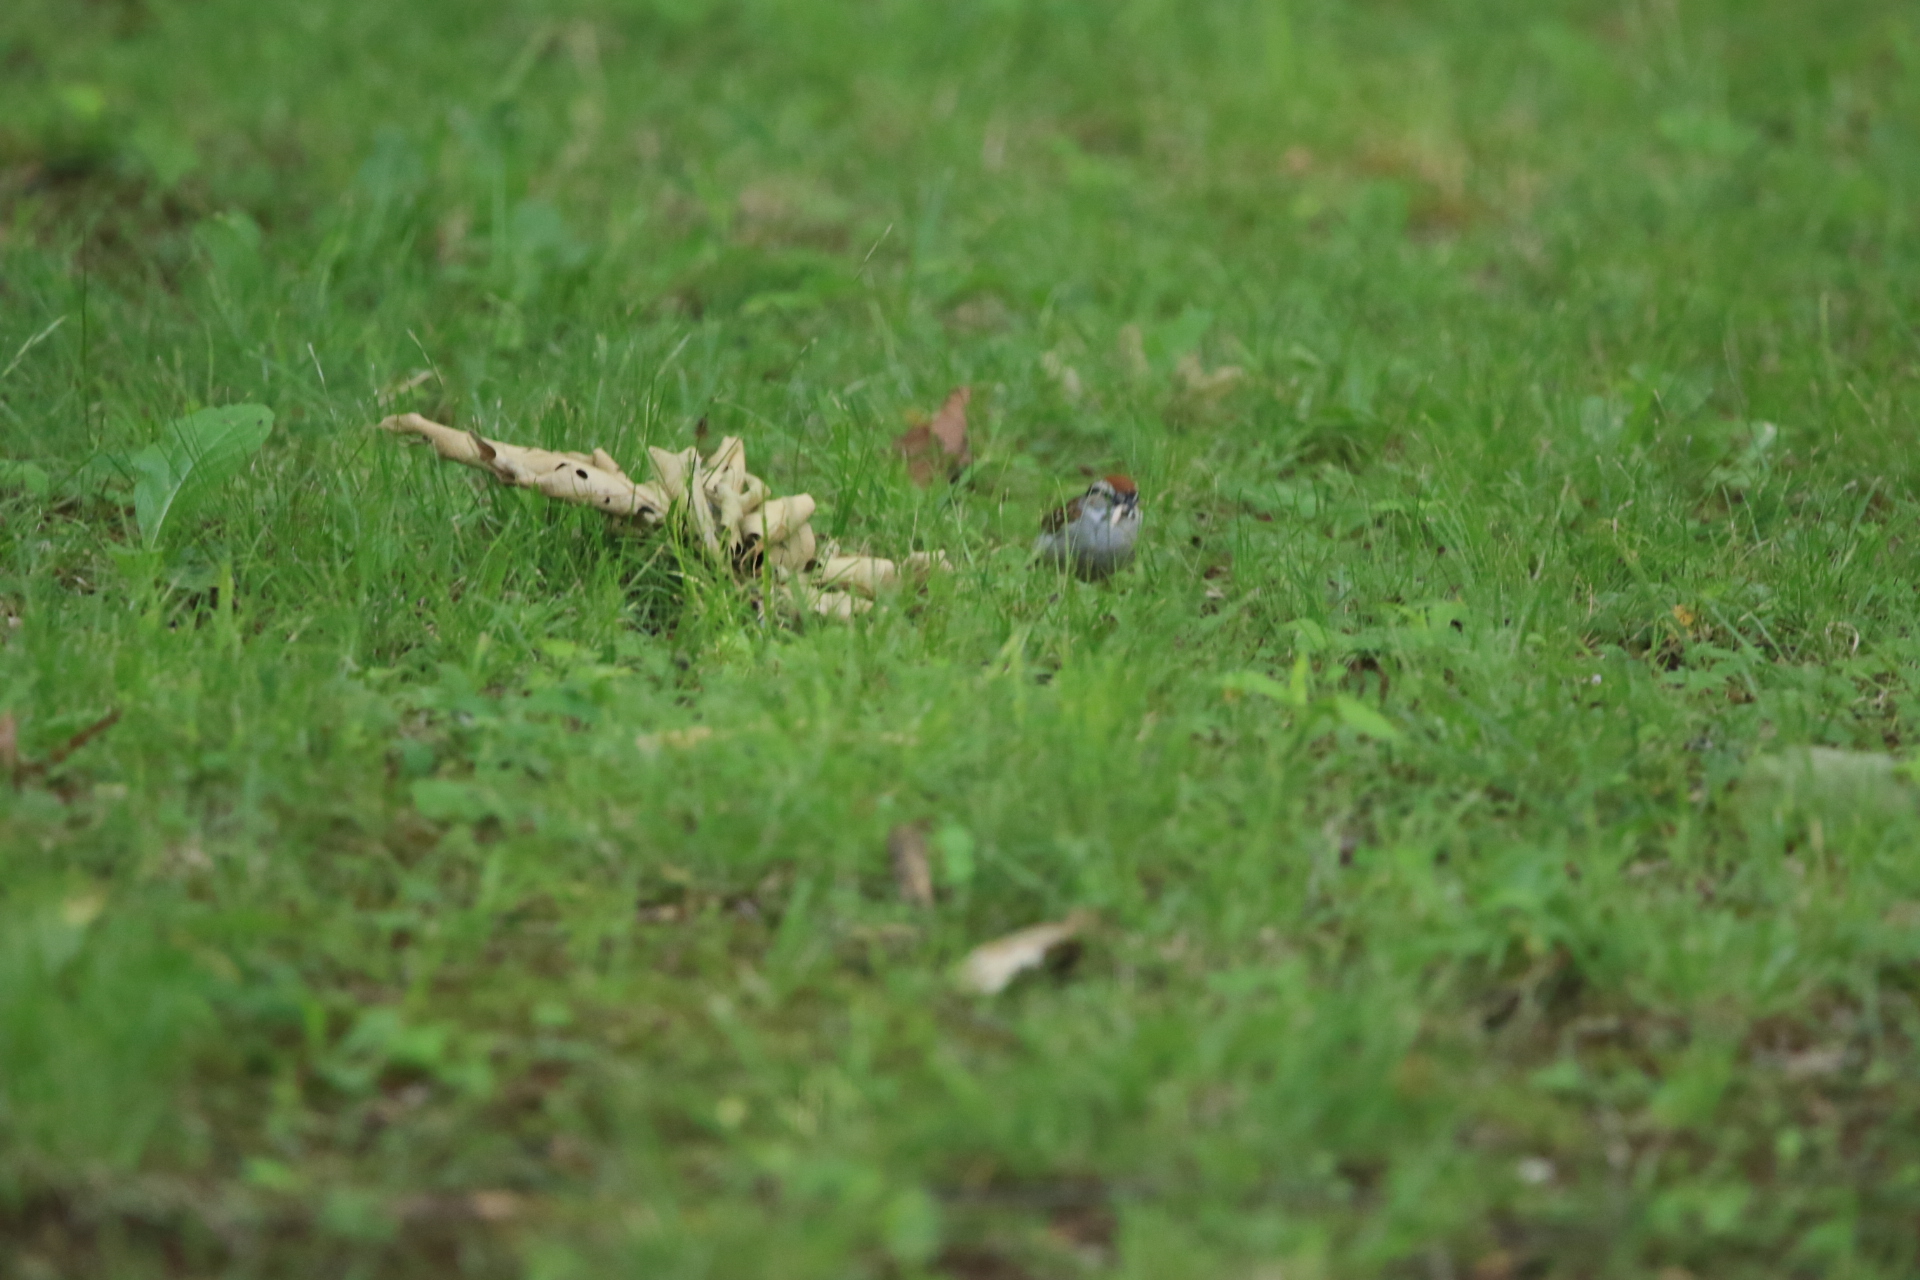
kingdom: Animalia
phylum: Chordata
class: Aves
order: Passeriformes
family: Passerellidae
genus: Spizella
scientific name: Spizella passerina
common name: Chipping sparrow
